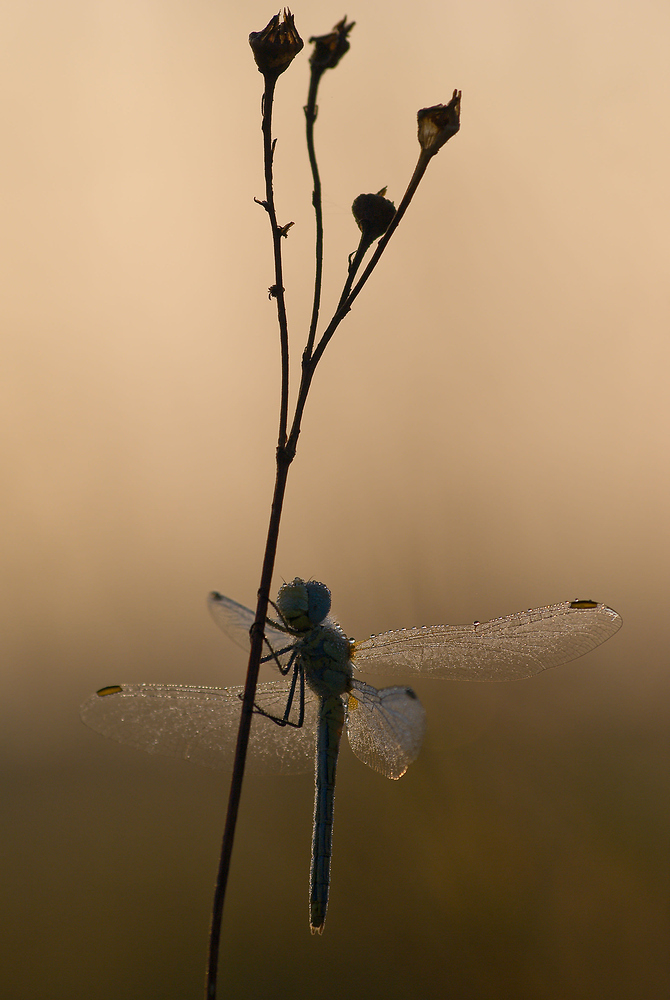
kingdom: Animalia
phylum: Arthropoda
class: Insecta
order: Odonata
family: Libellulidae
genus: Sympetrum
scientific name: Sympetrum fonscolombii
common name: Red-veined darter
